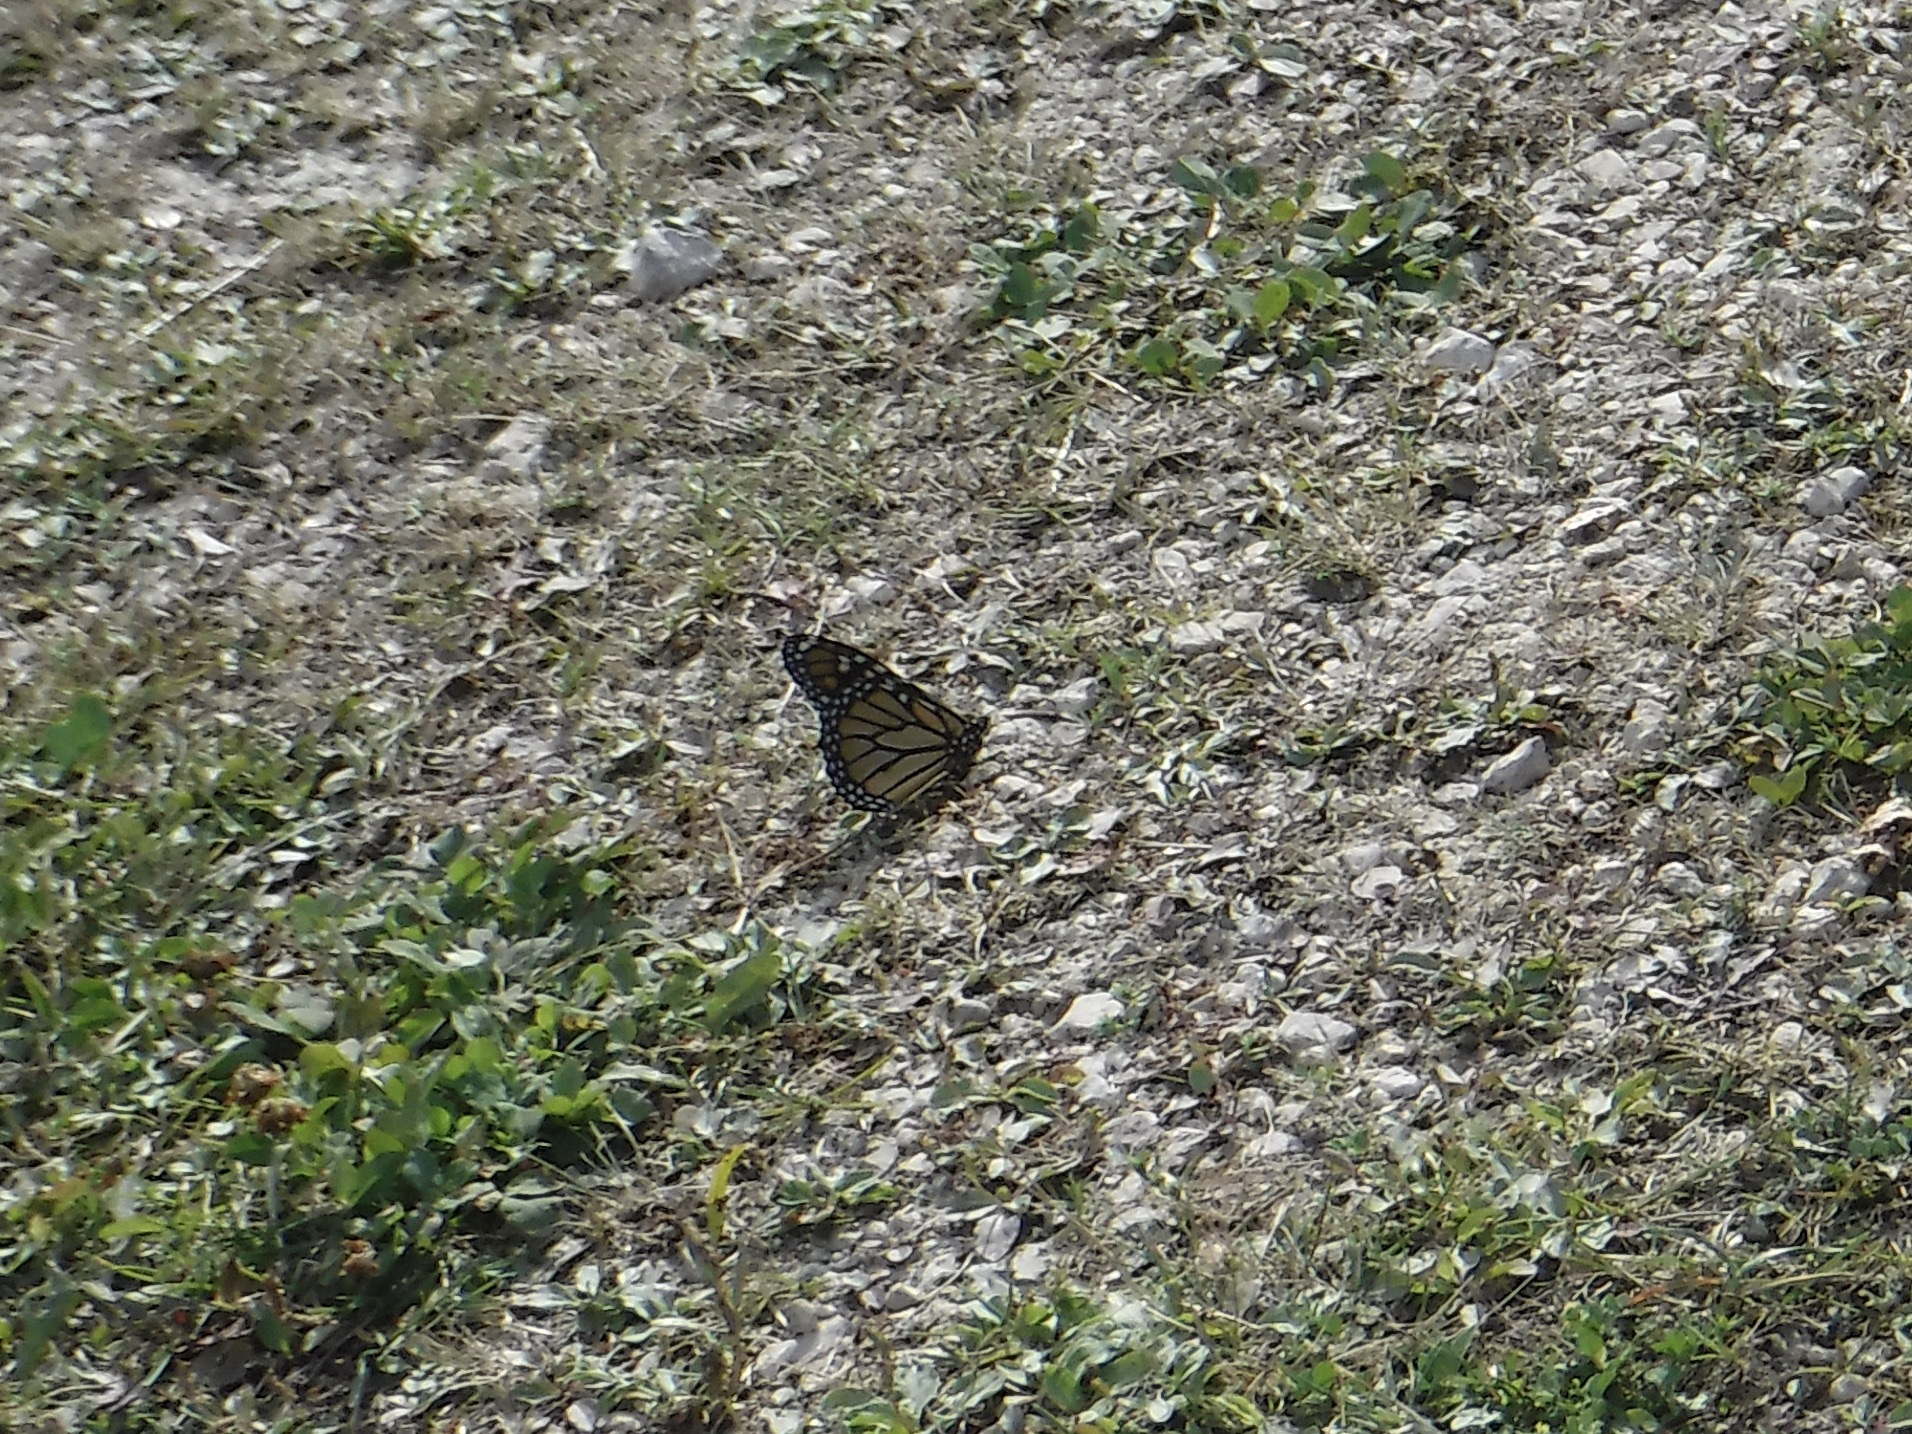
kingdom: Animalia
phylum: Arthropoda
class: Insecta
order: Lepidoptera
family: Nymphalidae
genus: Danaus
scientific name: Danaus plexippus
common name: Monarch
